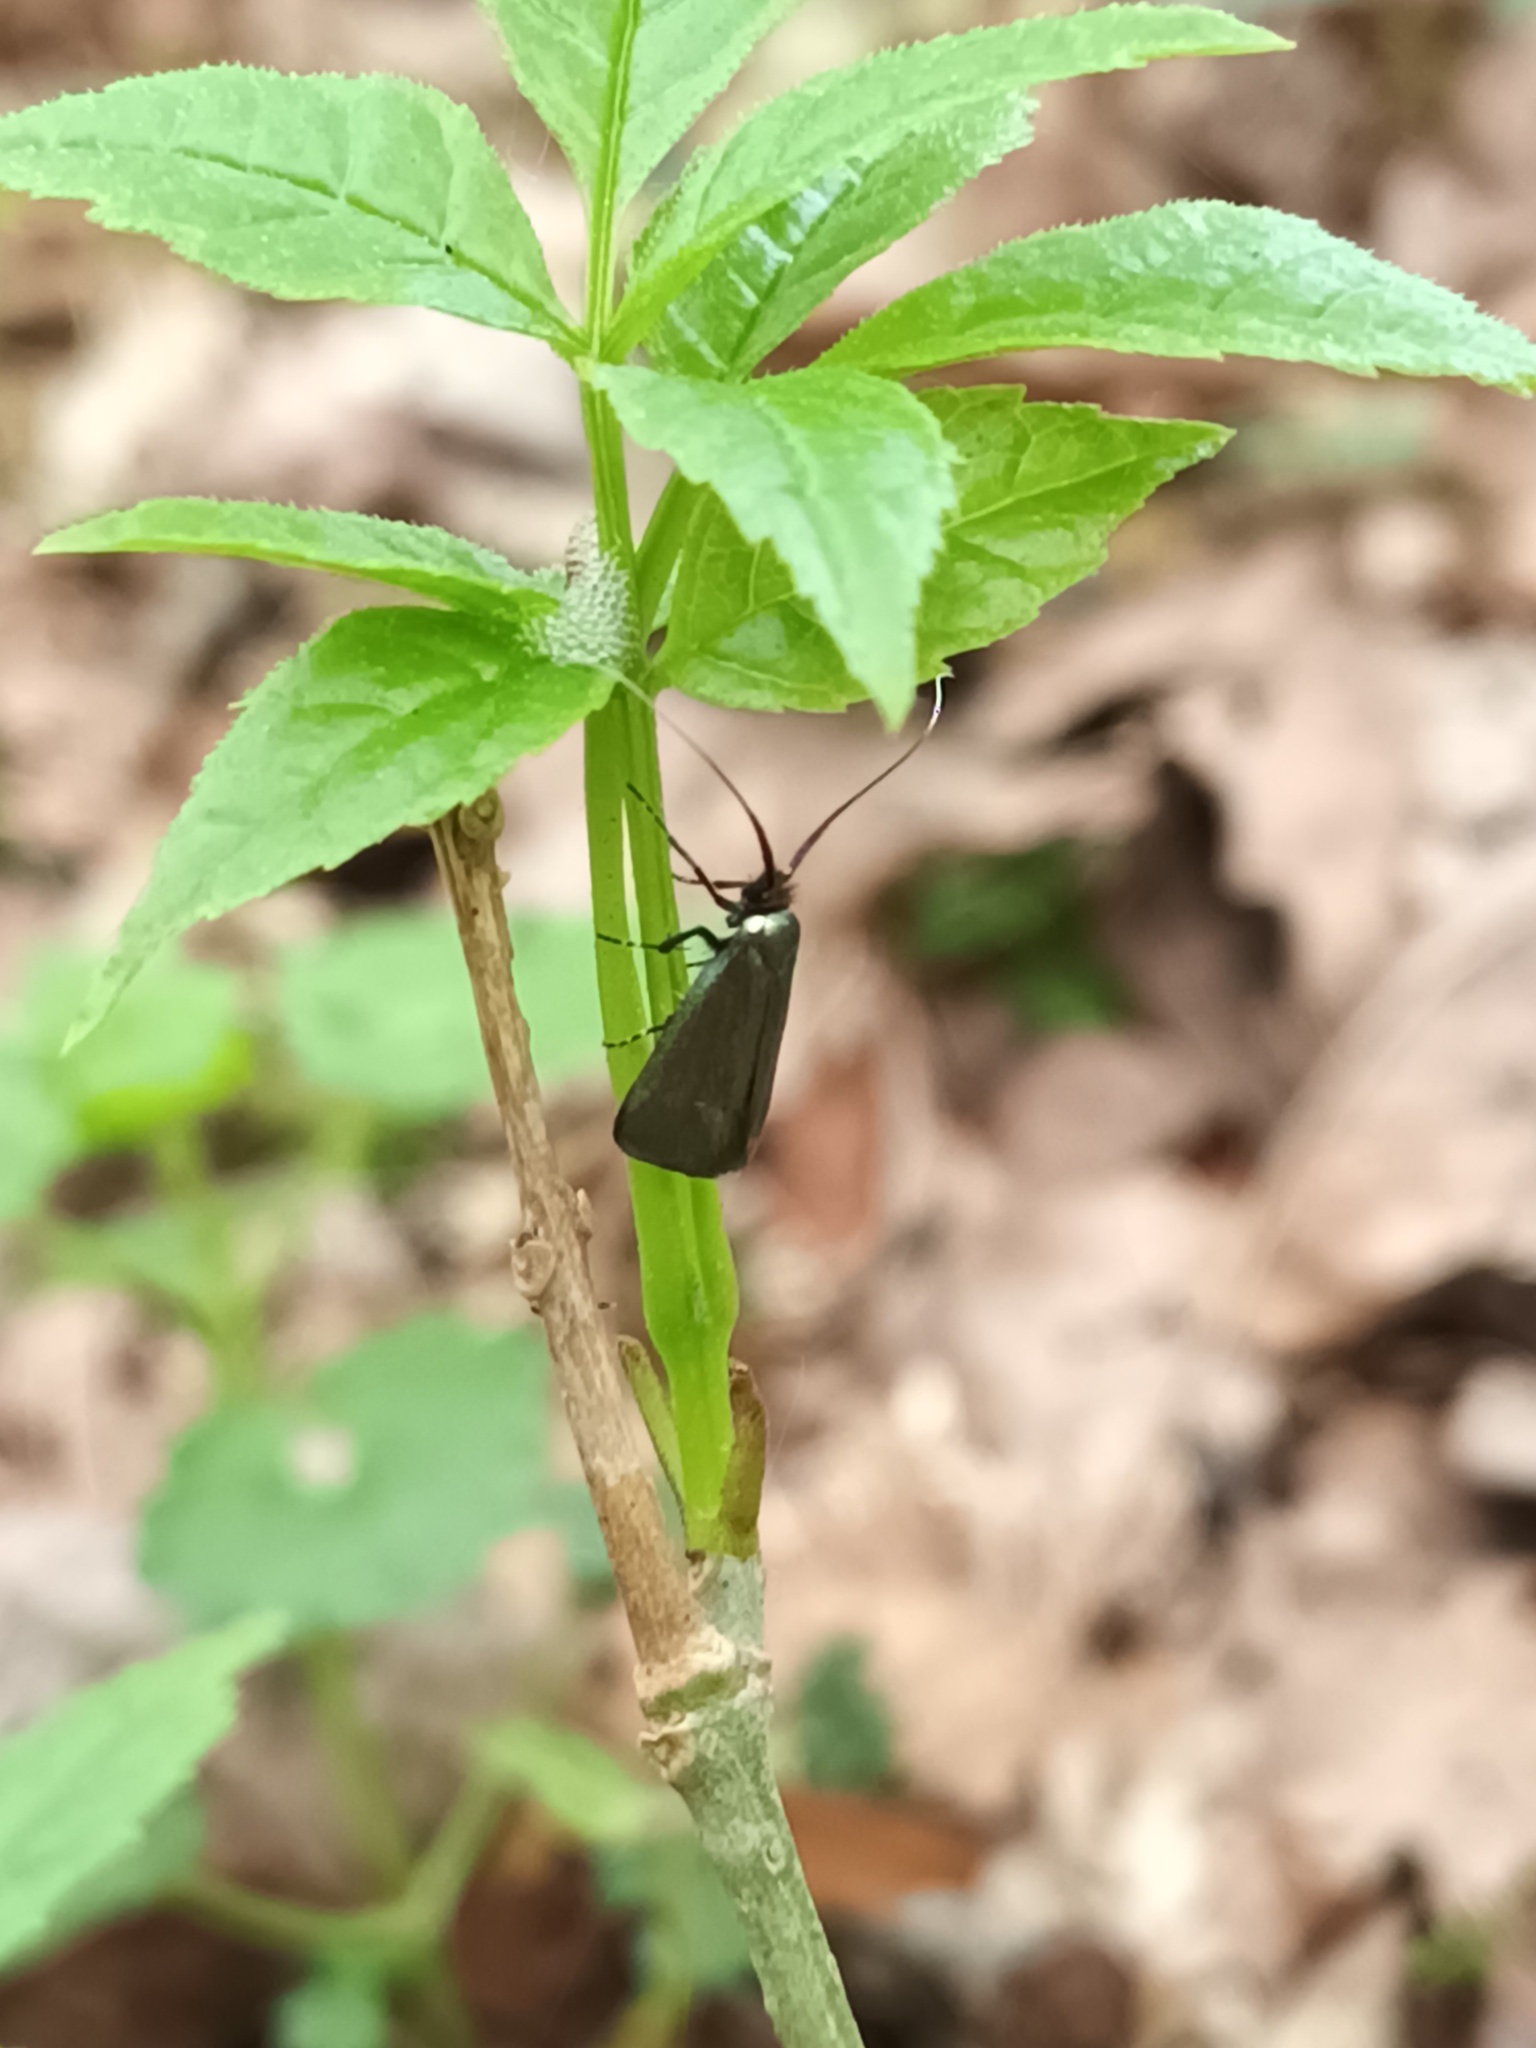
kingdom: Animalia
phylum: Arthropoda
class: Insecta
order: Lepidoptera
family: Adelidae
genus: Adela
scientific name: Adela viridella
